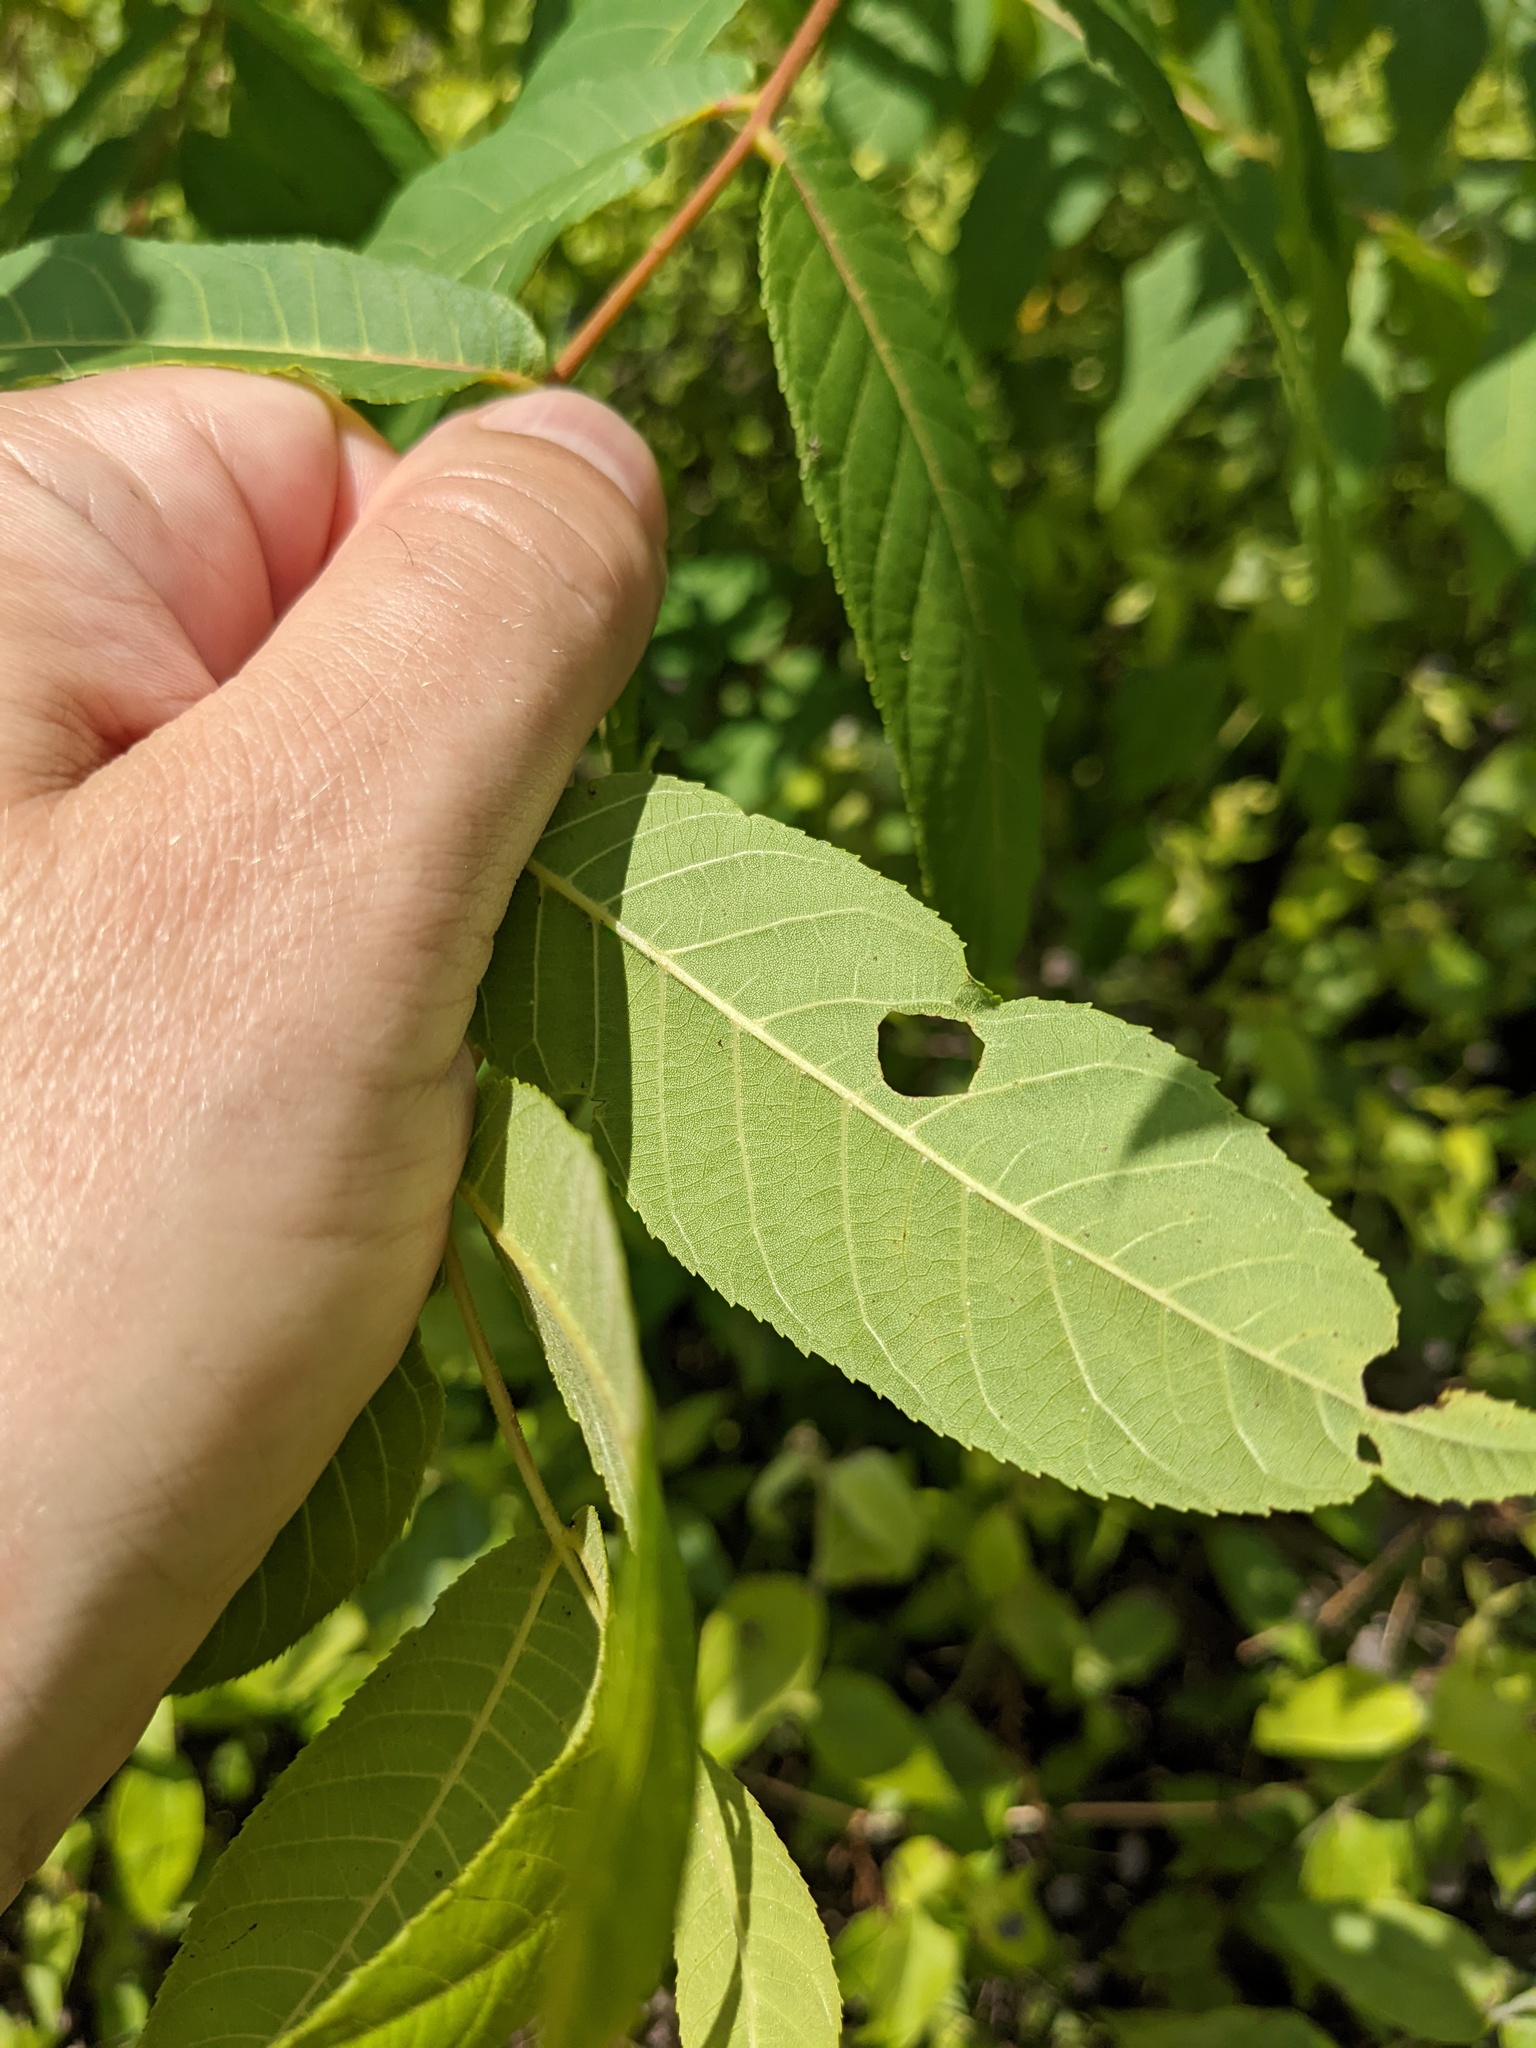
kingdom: Plantae
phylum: Tracheophyta
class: Magnoliopsida
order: Fagales
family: Juglandaceae
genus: Juglans
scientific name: Juglans nigra
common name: Black walnut
